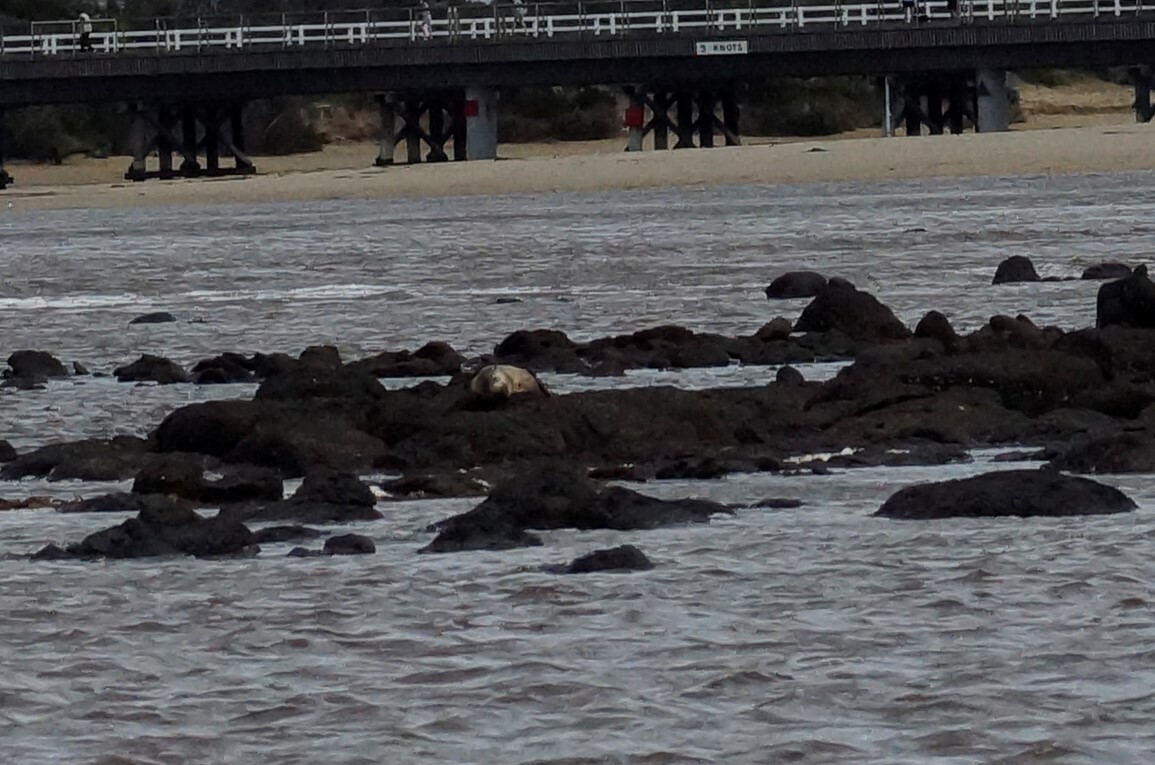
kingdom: Animalia
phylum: Chordata
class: Mammalia
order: Carnivora
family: Otariidae
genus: Arctocephalus
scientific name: Arctocephalus pusillus
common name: Brown fur seal
